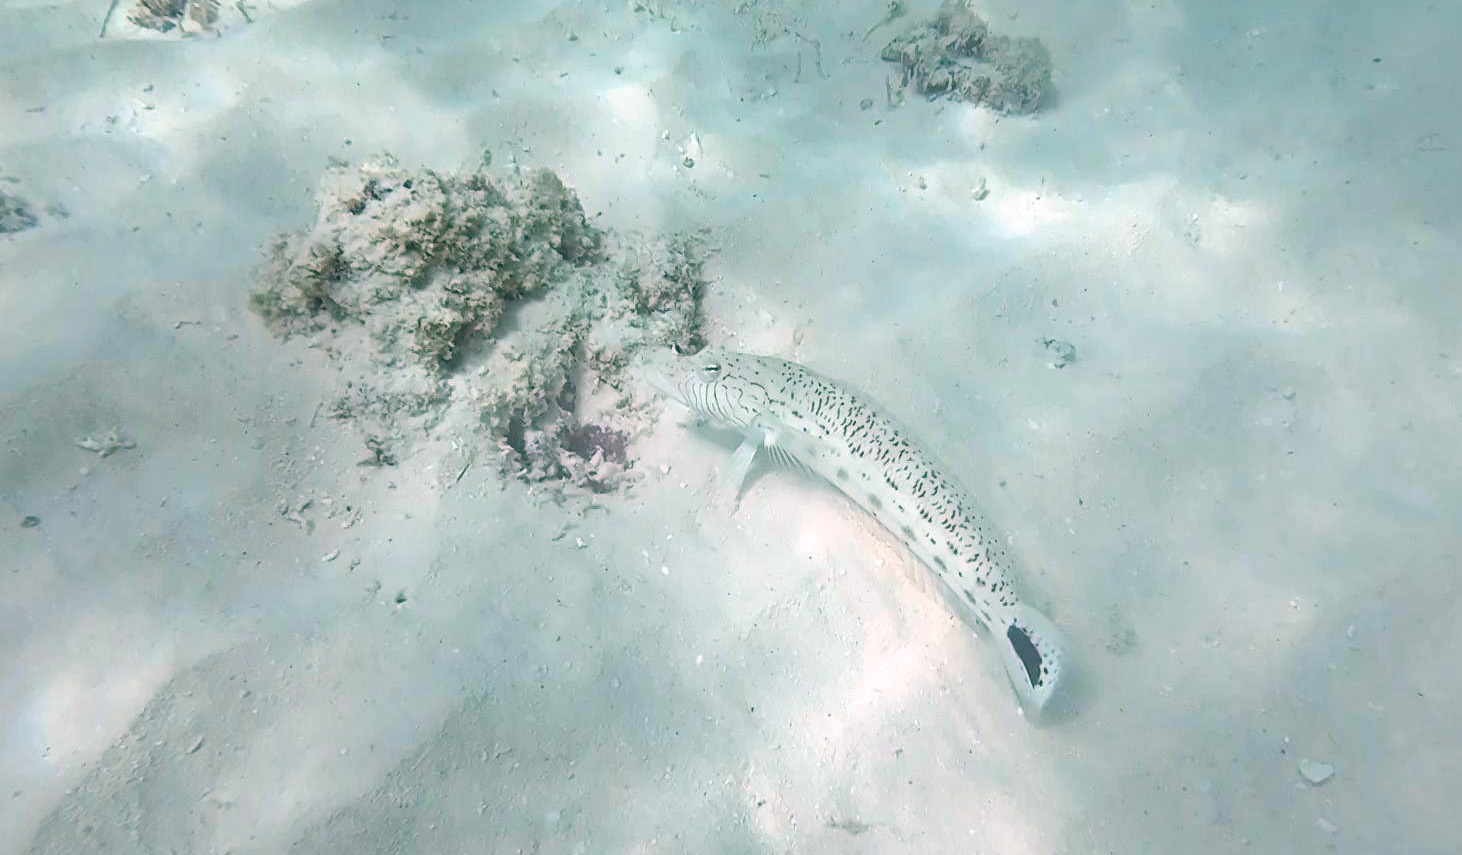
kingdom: Animalia
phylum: Chordata
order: Perciformes
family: Pinguipedidae
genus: Parapercis
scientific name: Parapercis hexophtalma
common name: Speckled sandperch
